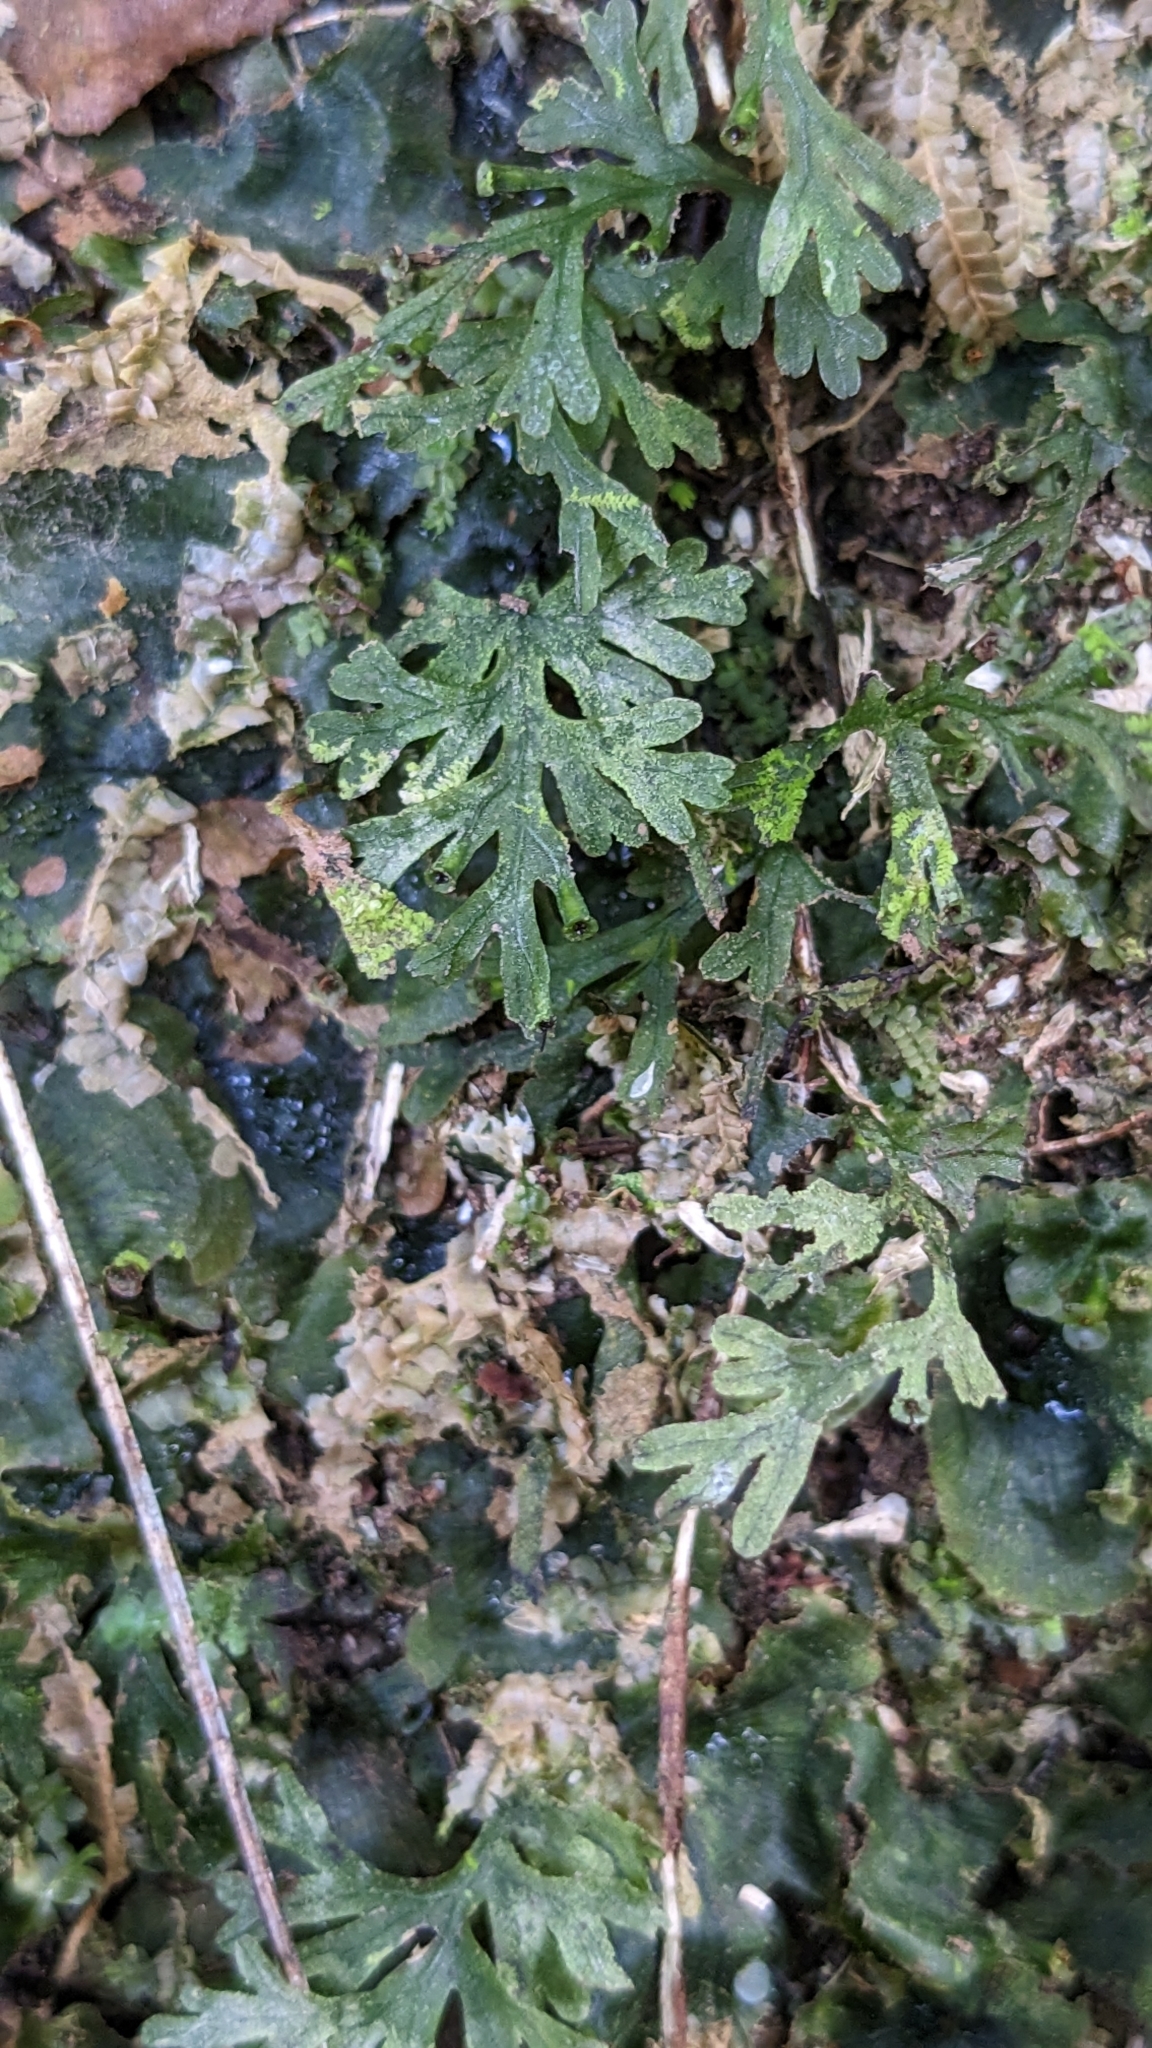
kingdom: Plantae
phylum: Tracheophyta
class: Polypodiopsida
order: Hymenophyllales
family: Hymenophyllaceae
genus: Crepidomanes
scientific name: Crepidomanes humile
